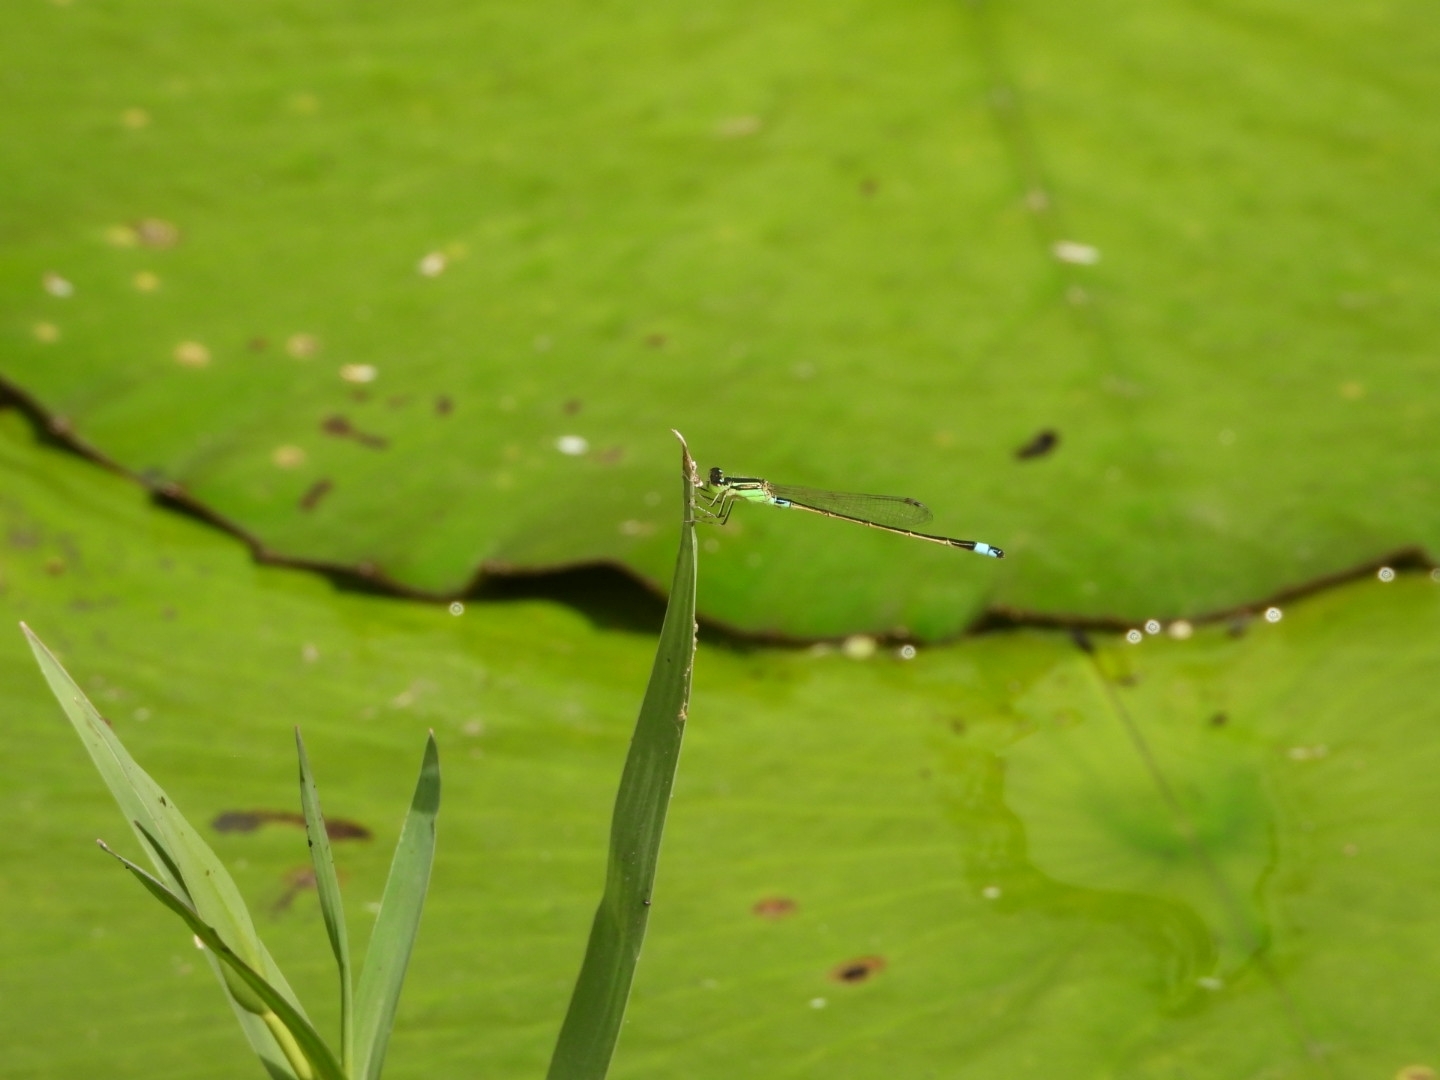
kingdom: Animalia
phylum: Arthropoda
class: Insecta
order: Odonata
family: Coenagrionidae
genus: Ischnura
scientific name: Ischnura senegalensis
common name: Tropical bluetail
